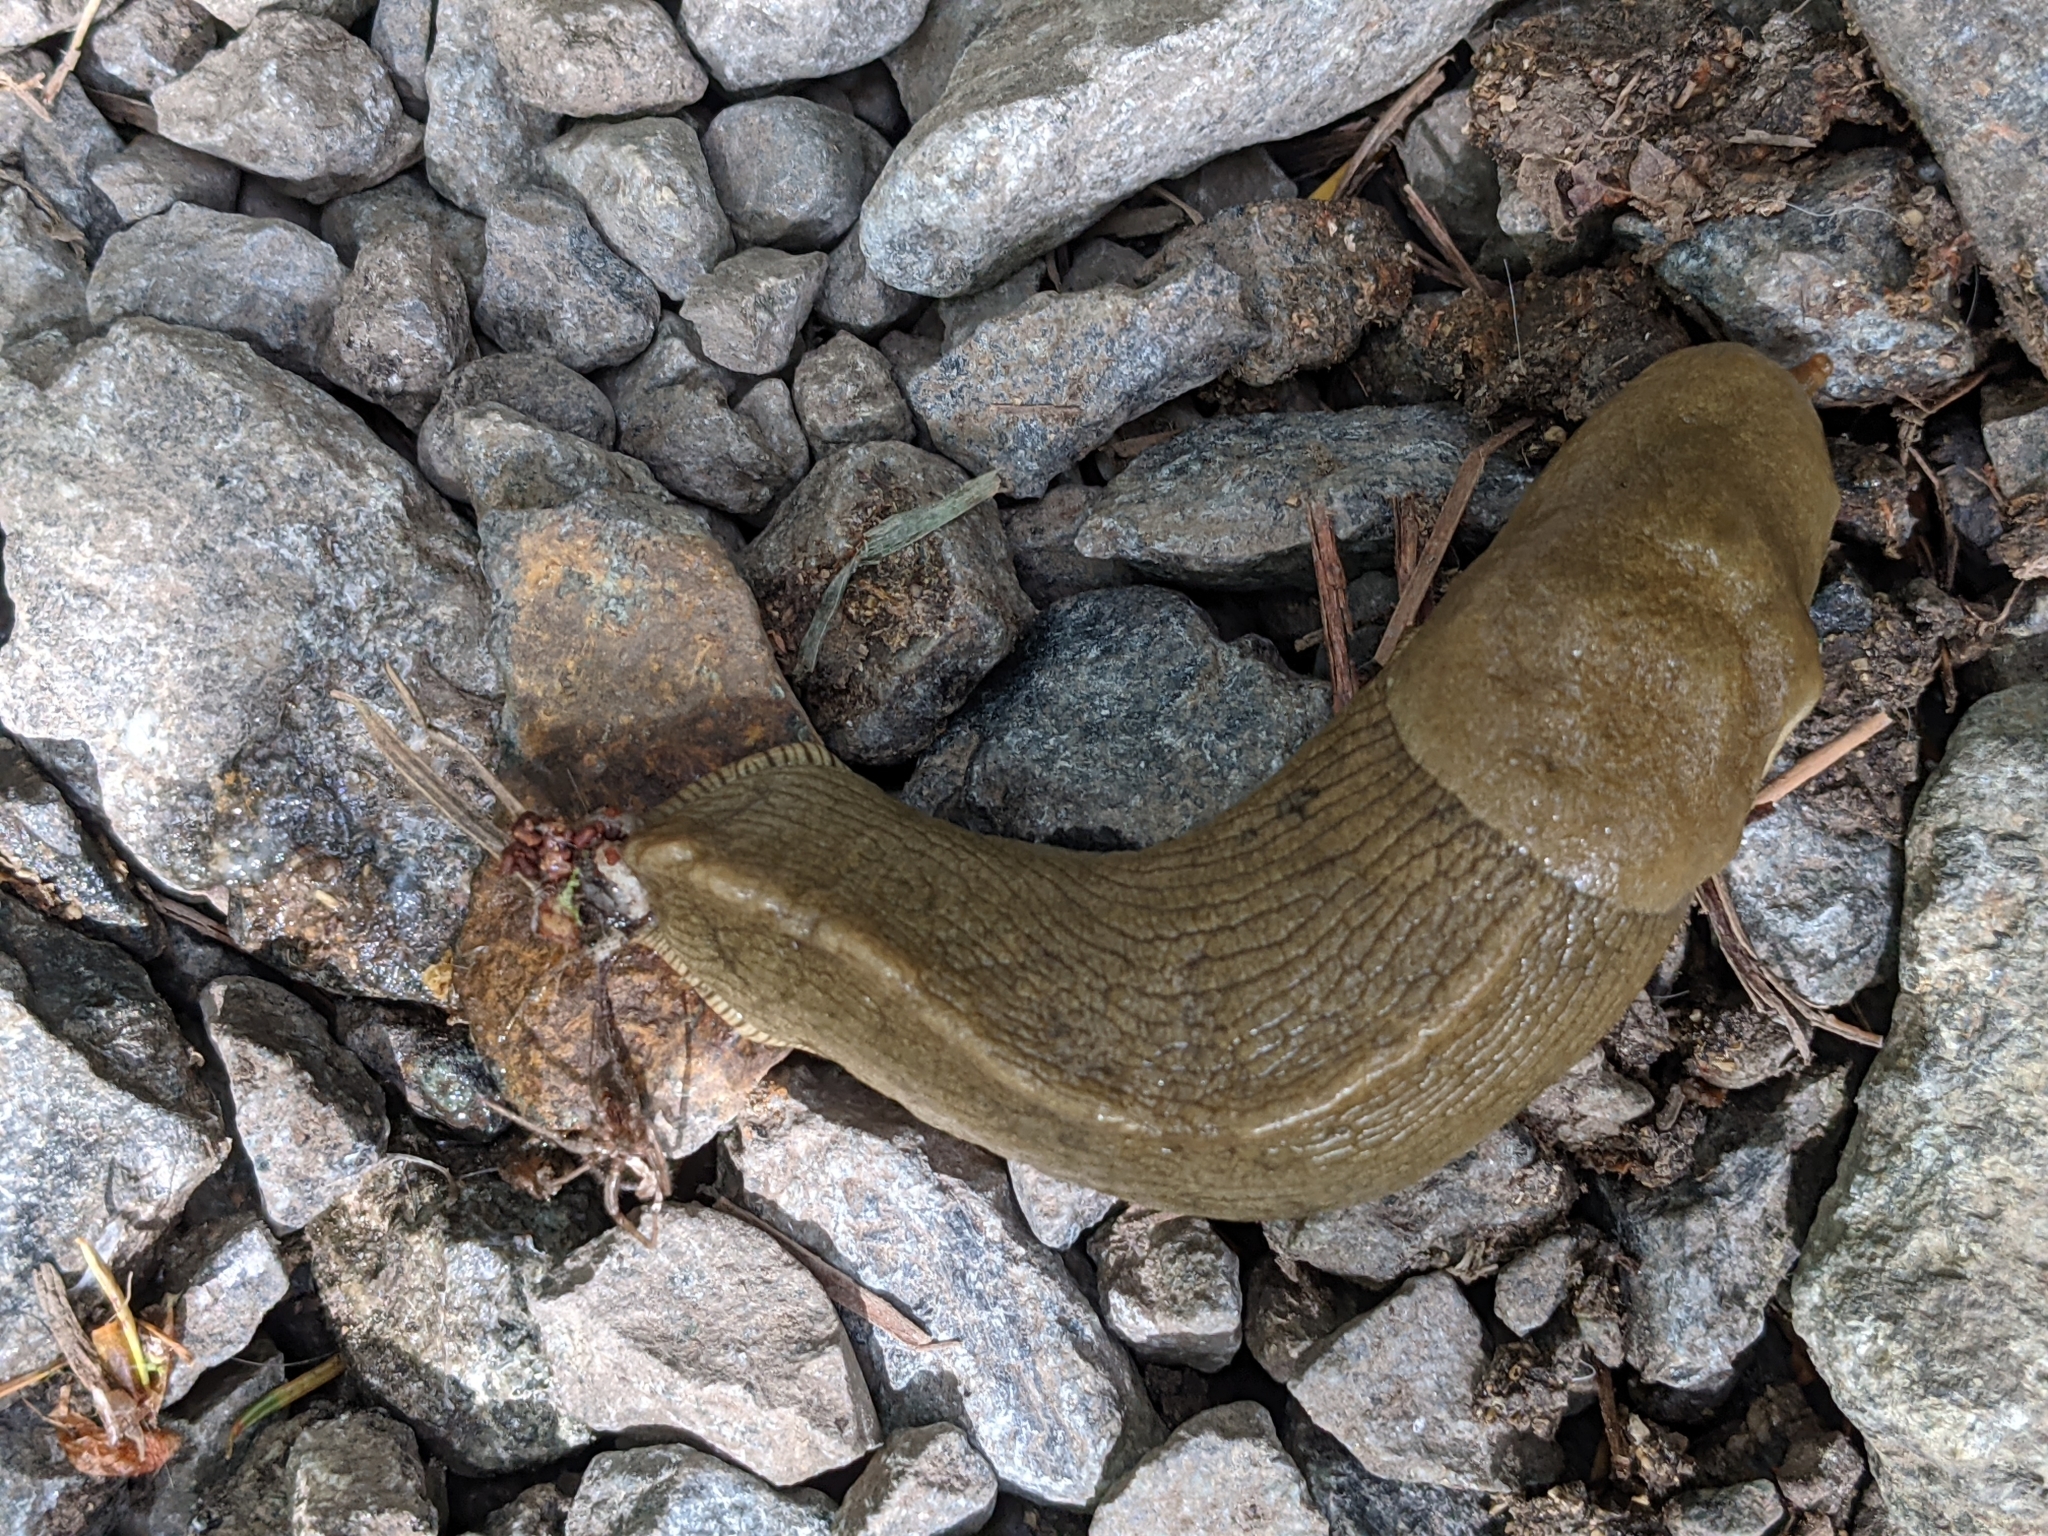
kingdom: Animalia
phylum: Mollusca
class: Gastropoda
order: Stylommatophora
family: Ariolimacidae
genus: Ariolimax
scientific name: Ariolimax columbianus
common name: Pacific banana slug
